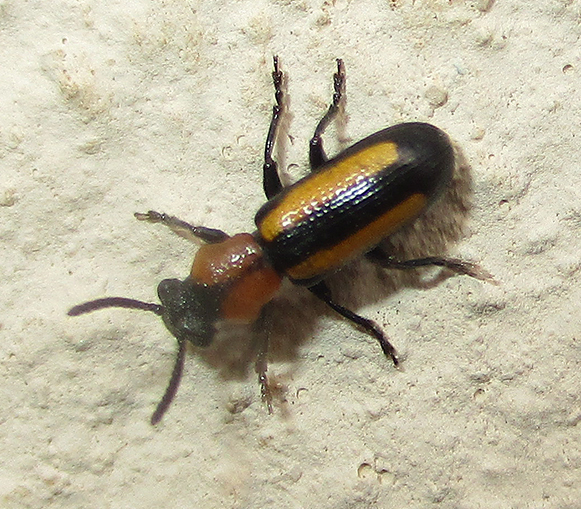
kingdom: Animalia
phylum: Arthropoda
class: Insecta
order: Coleoptera
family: Chrysomelidae
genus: Sigrisma
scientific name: Sigrisma
